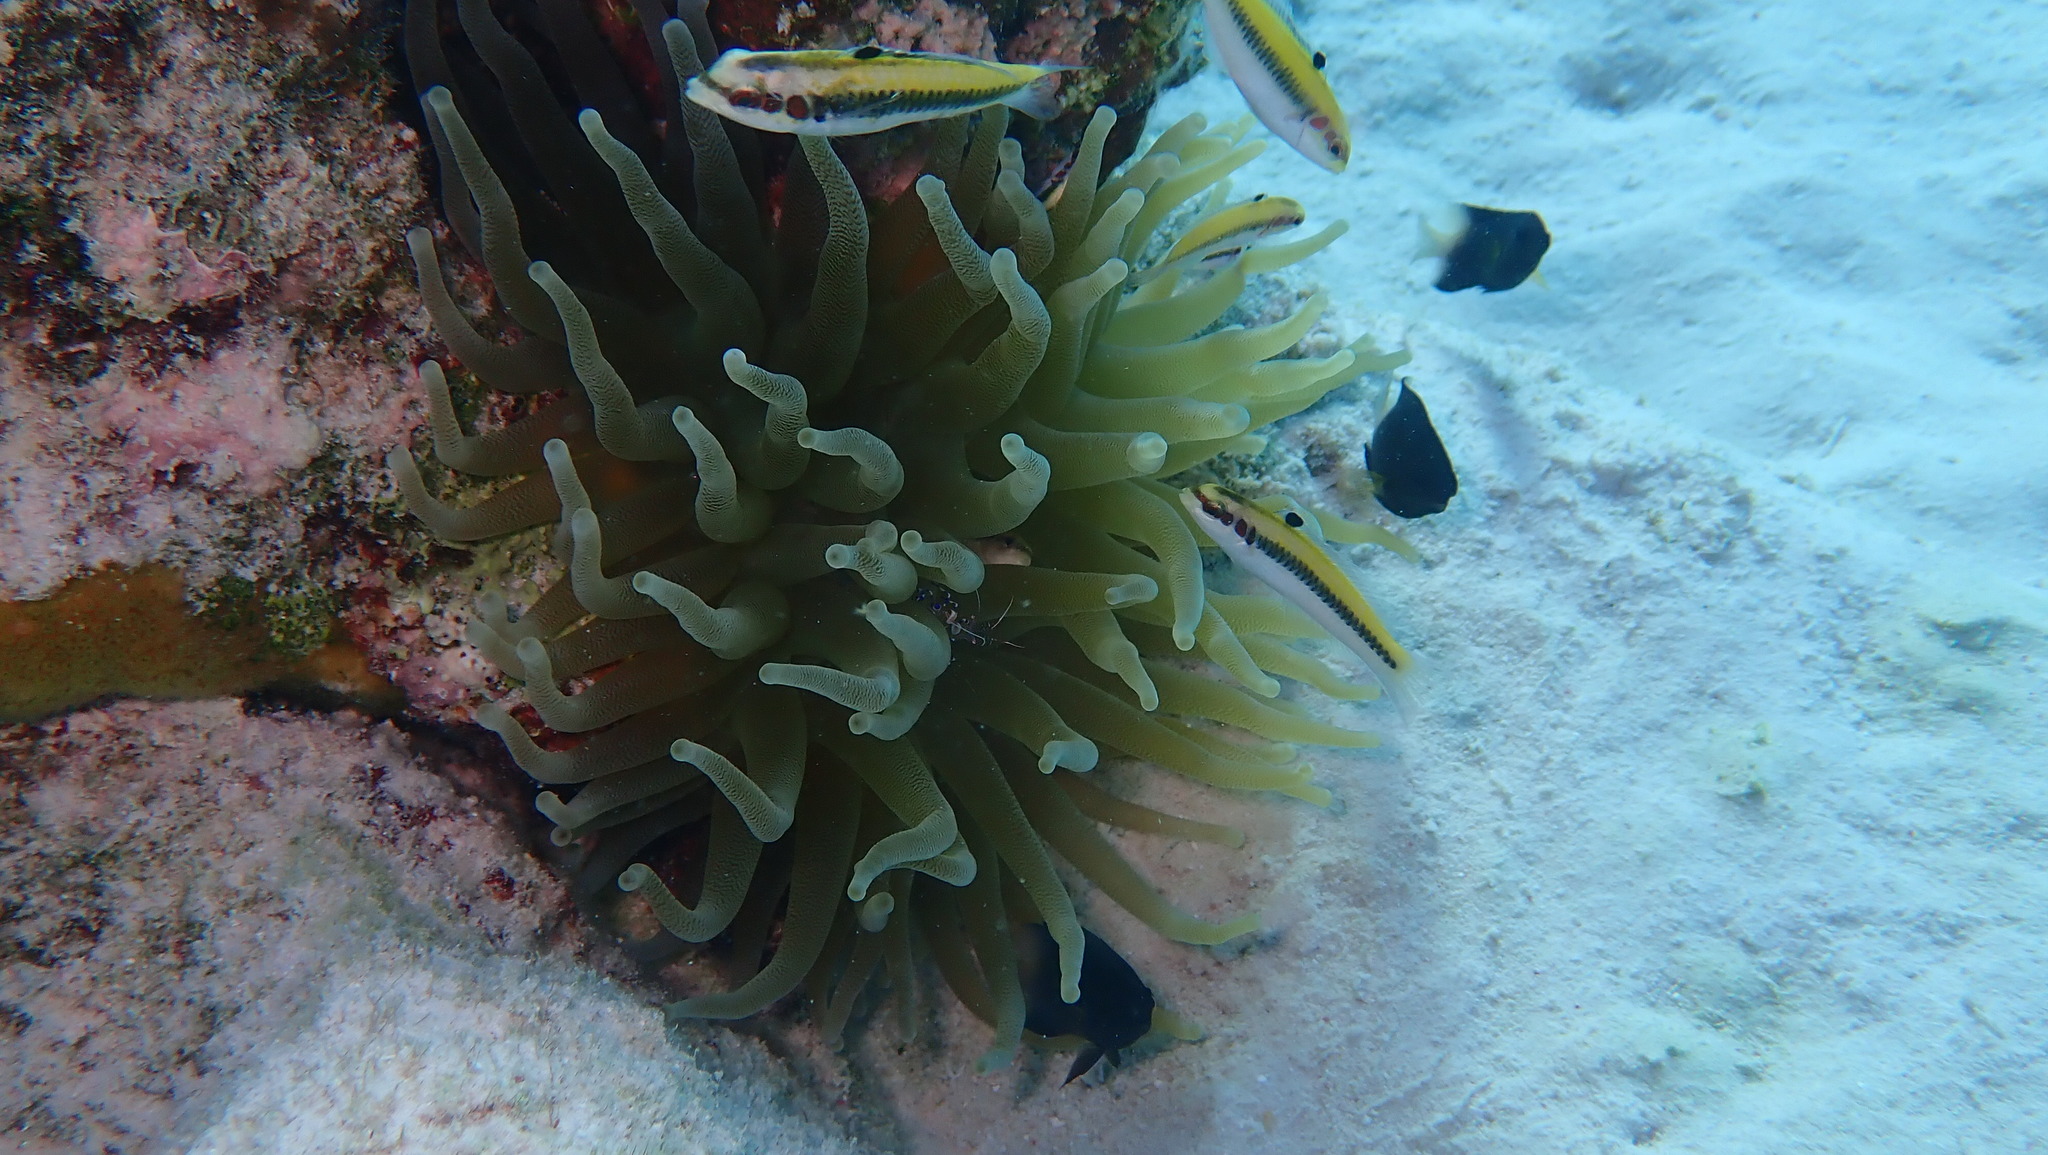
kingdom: Animalia
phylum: Cnidaria
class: Anthozoa
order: Actiniaria
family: Actiniidae
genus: Condylactis
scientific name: Condylactis gigantea
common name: Giant caribbean anemone
